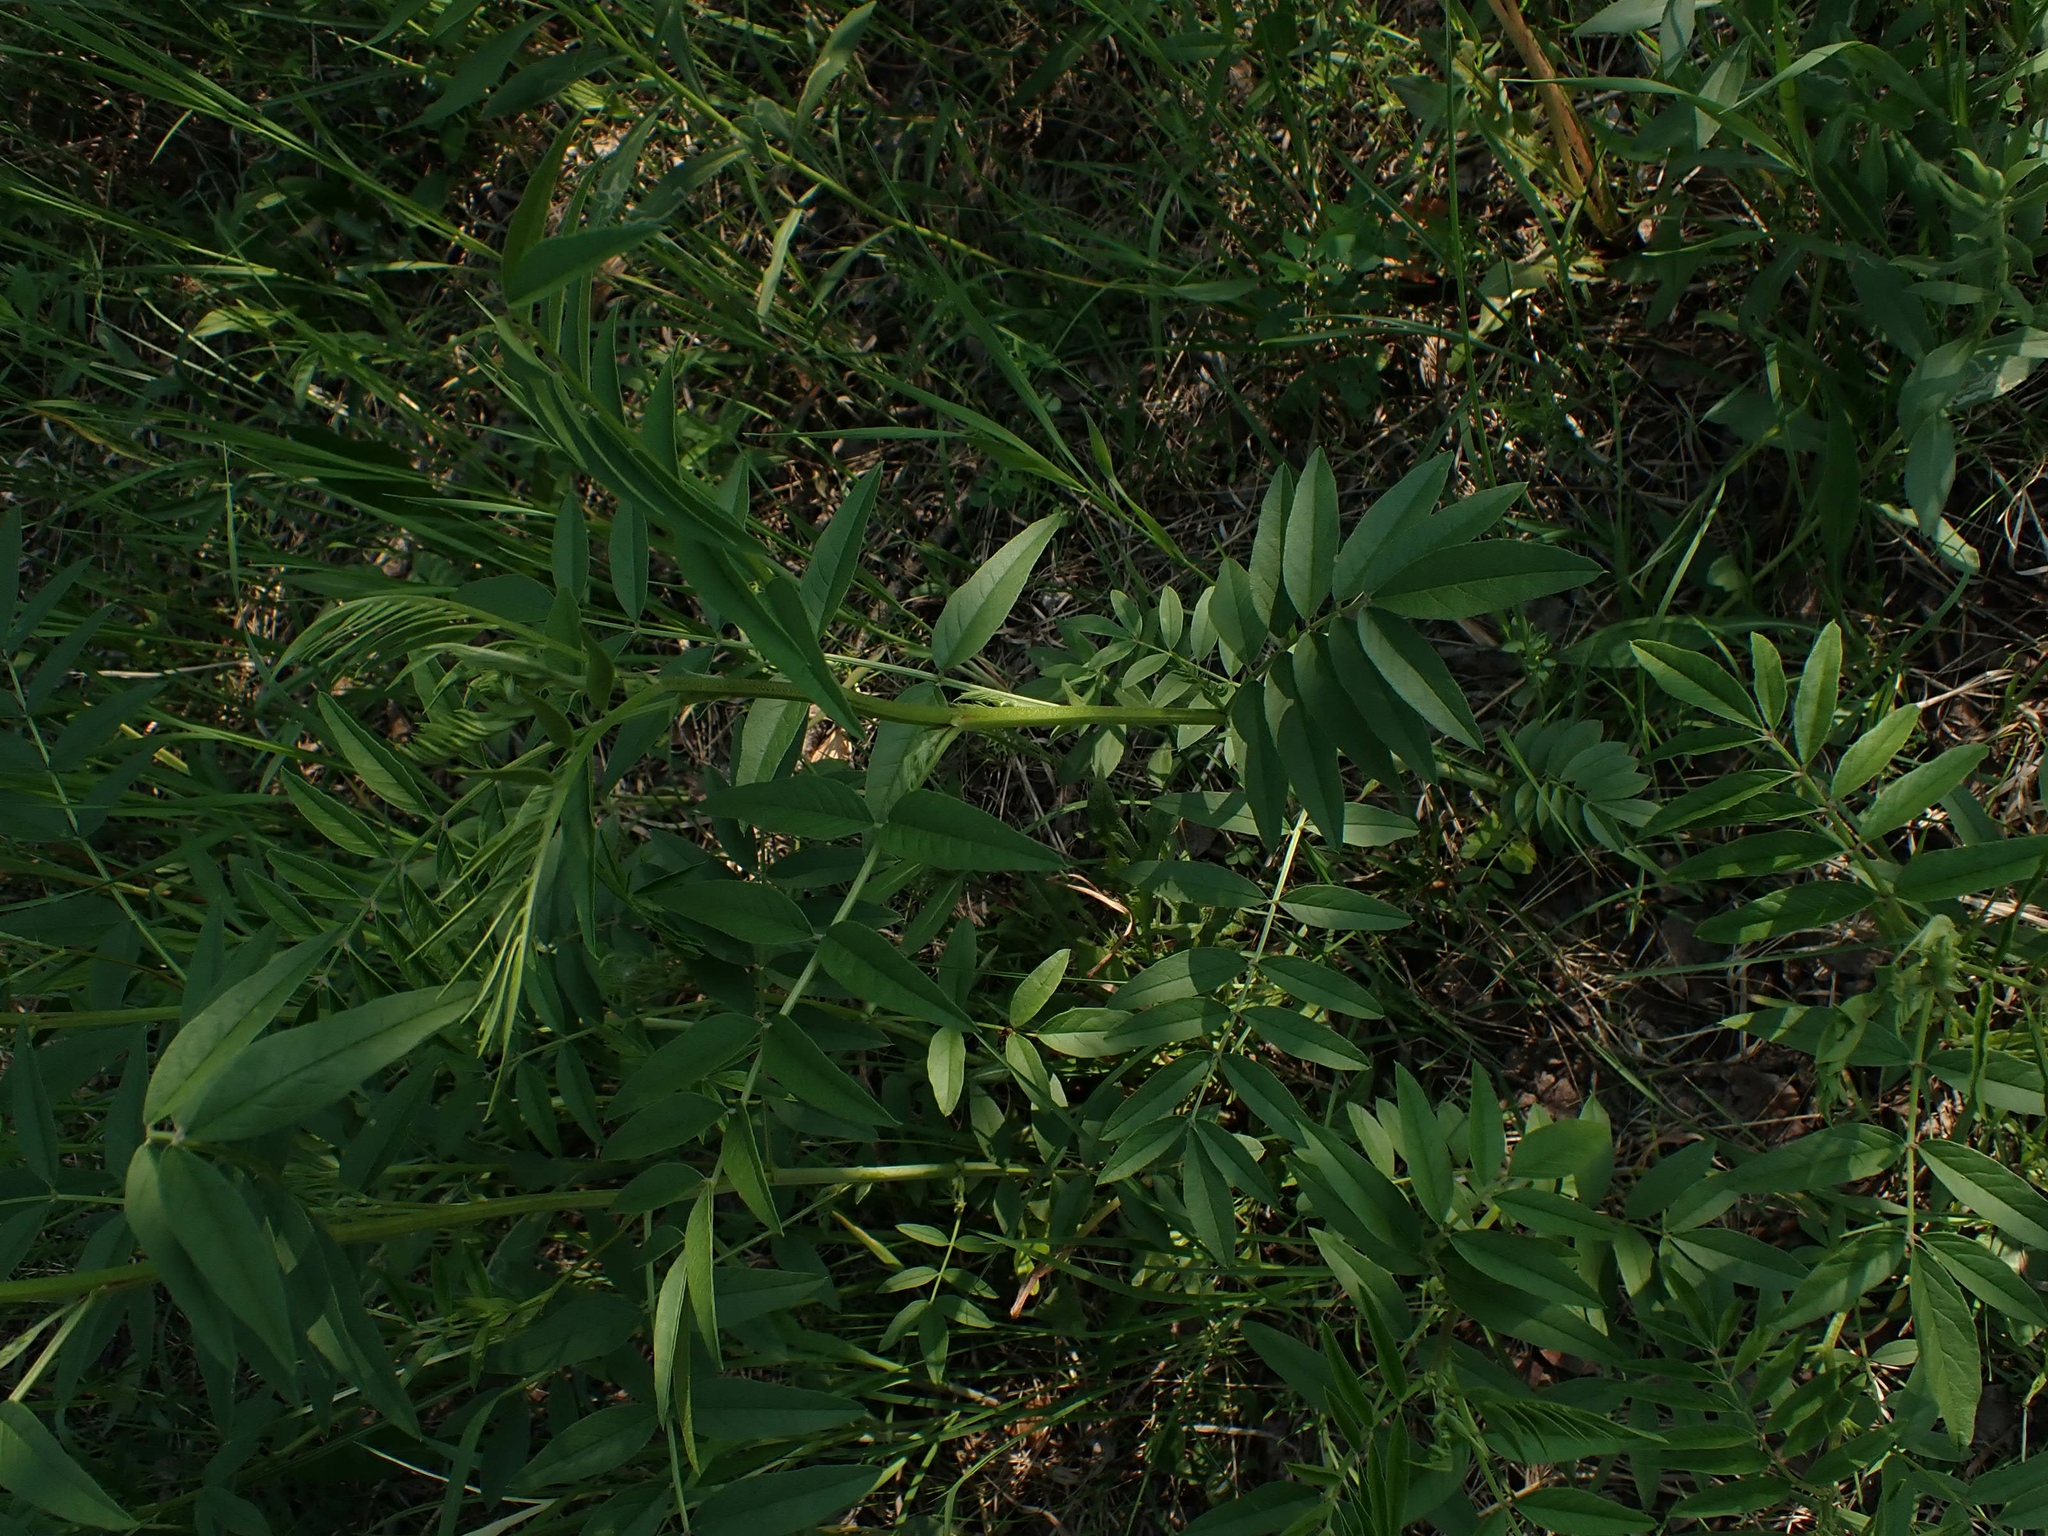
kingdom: Plantae
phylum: Tracheophyta
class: Magnoliopsida
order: Fabales
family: Fabaceae
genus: Glycyrrhiza
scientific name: Glycyrrhiza lepidota
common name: American liquorice
